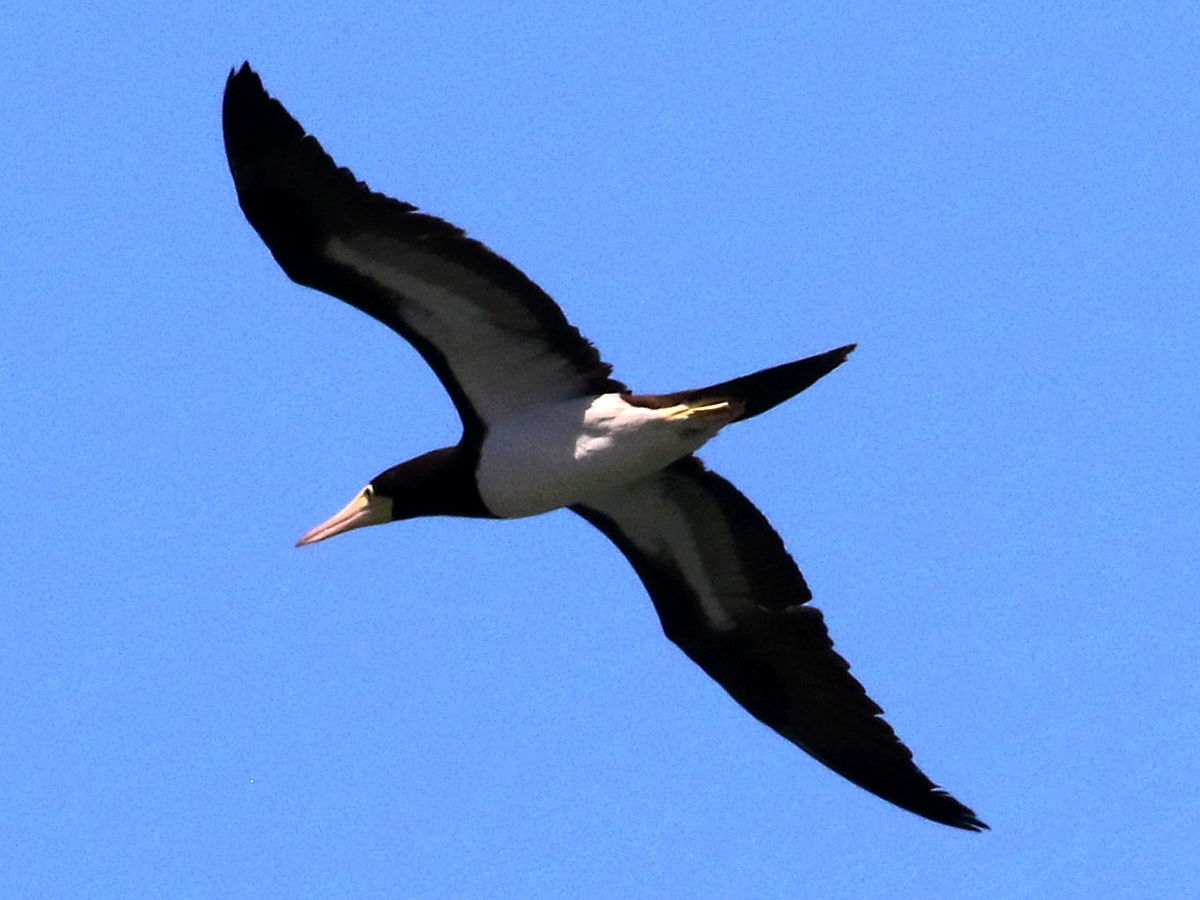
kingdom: Animalia
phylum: Chordata
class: Aves
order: Suliformes
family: Sulidae
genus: Sula
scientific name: Sula leucogaster
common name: Brown booby
